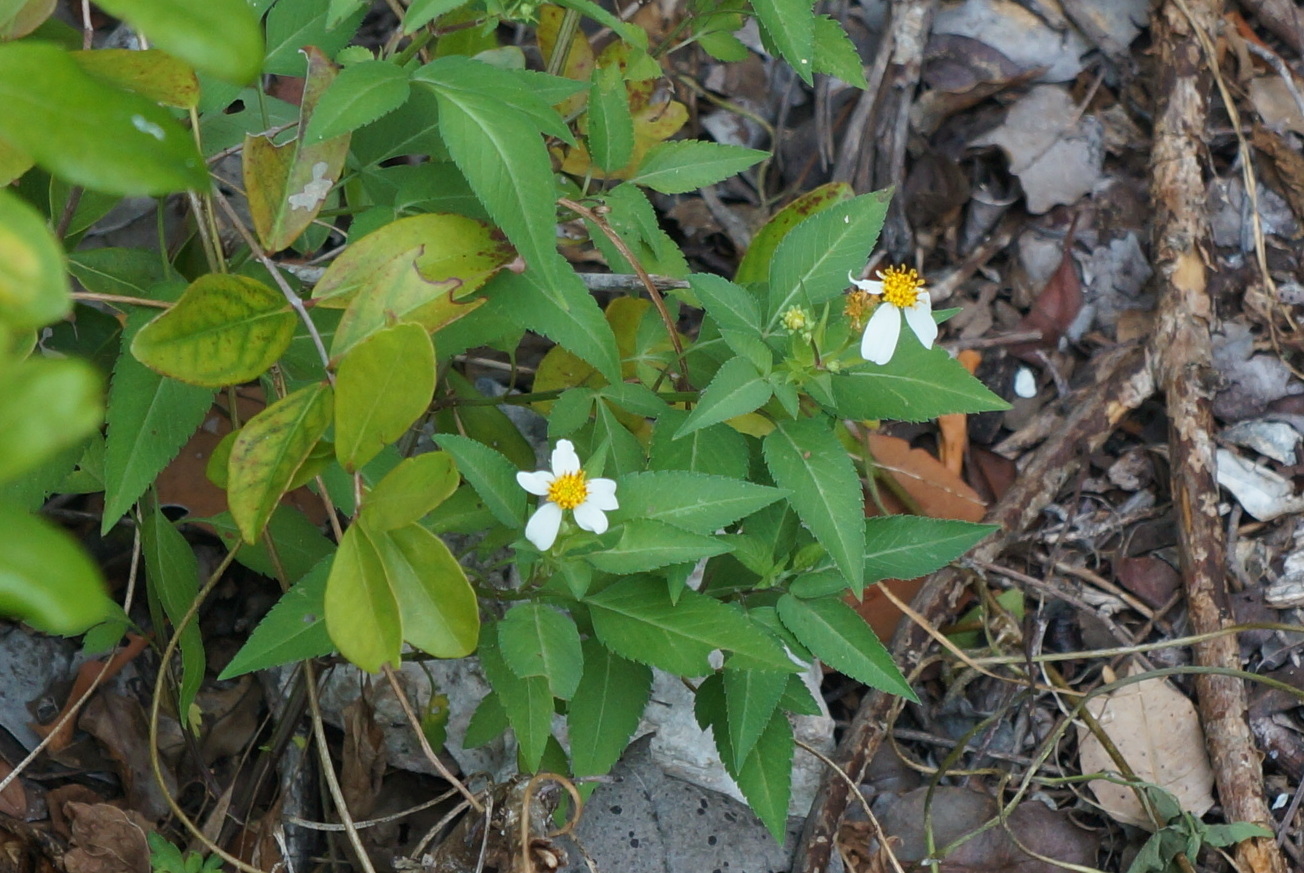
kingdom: Plantae
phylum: Tracheophyta
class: Magnoliopsida
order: Asterales
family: Asteraceae
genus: Bidens
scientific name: Bidens alba
